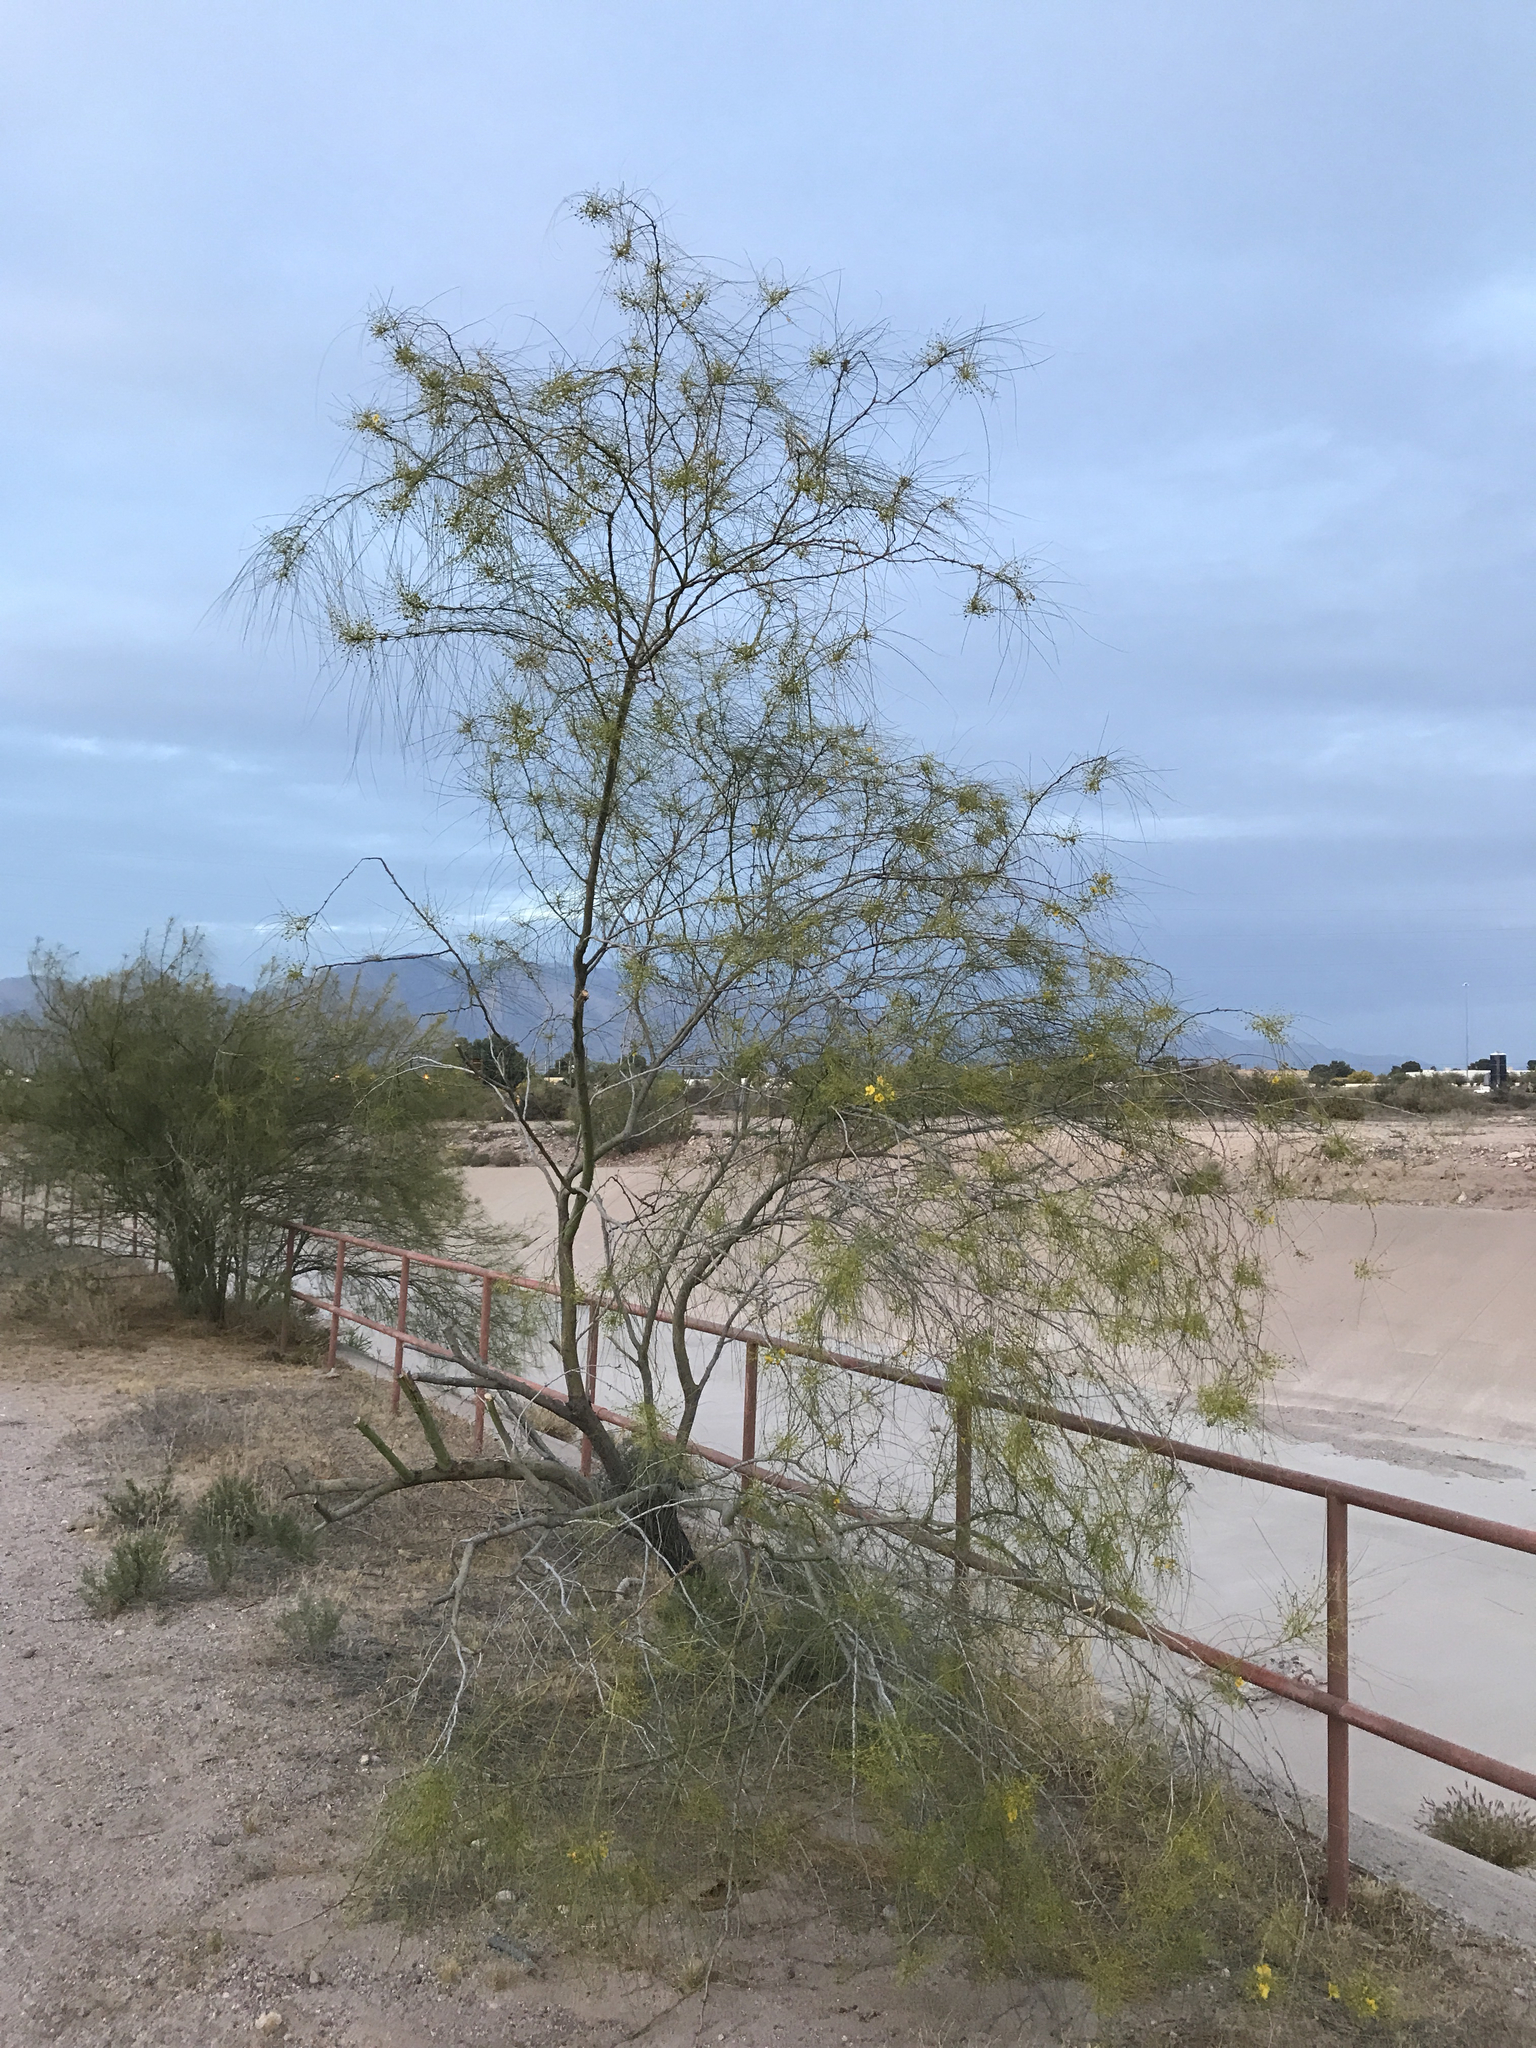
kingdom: Plantae
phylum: Tracheophyta
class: Magnoliopsida
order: Fabales
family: Fabaceae
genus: Parkinsonia
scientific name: Parkinsonia aculeata
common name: Jerusalem thorn
